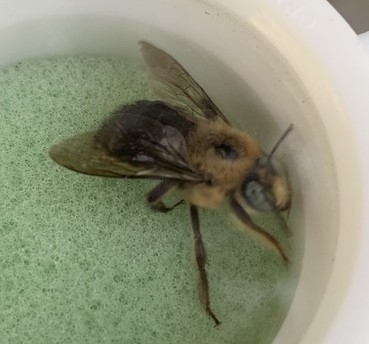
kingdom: Animalia
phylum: Arthropoda
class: Insecta
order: Hymenoptera
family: Apidae
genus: Xylocopa
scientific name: Xylocopa tabaniformis
